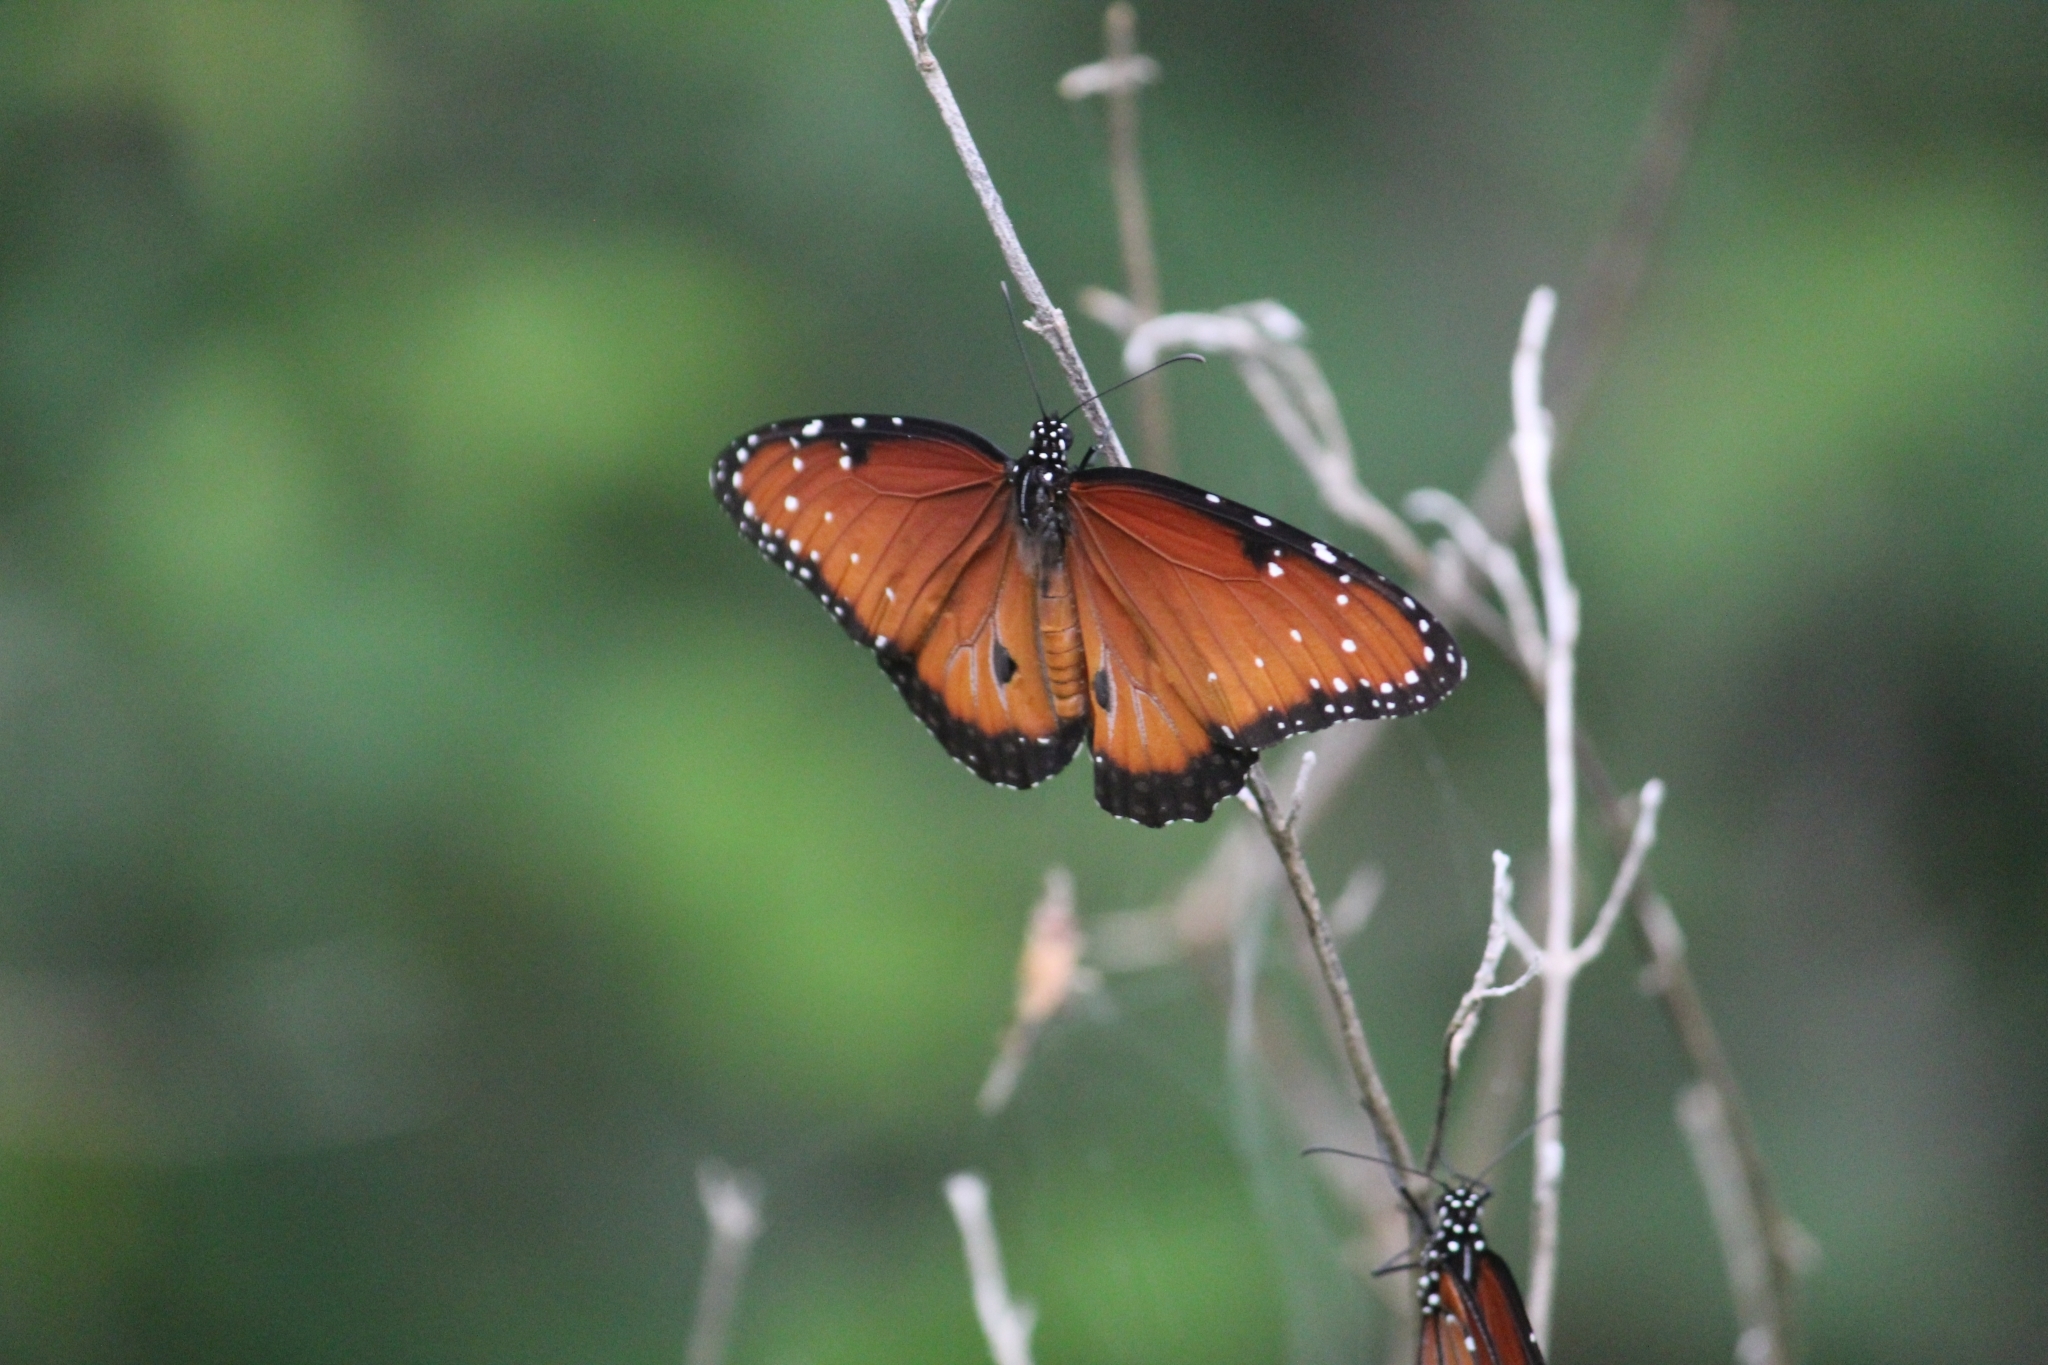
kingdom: Animalia
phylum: Arthropoda
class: Insecta
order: Lepidoptera
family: Nymphalidae
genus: Danaus
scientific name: Danaus gilippus
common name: Queen
